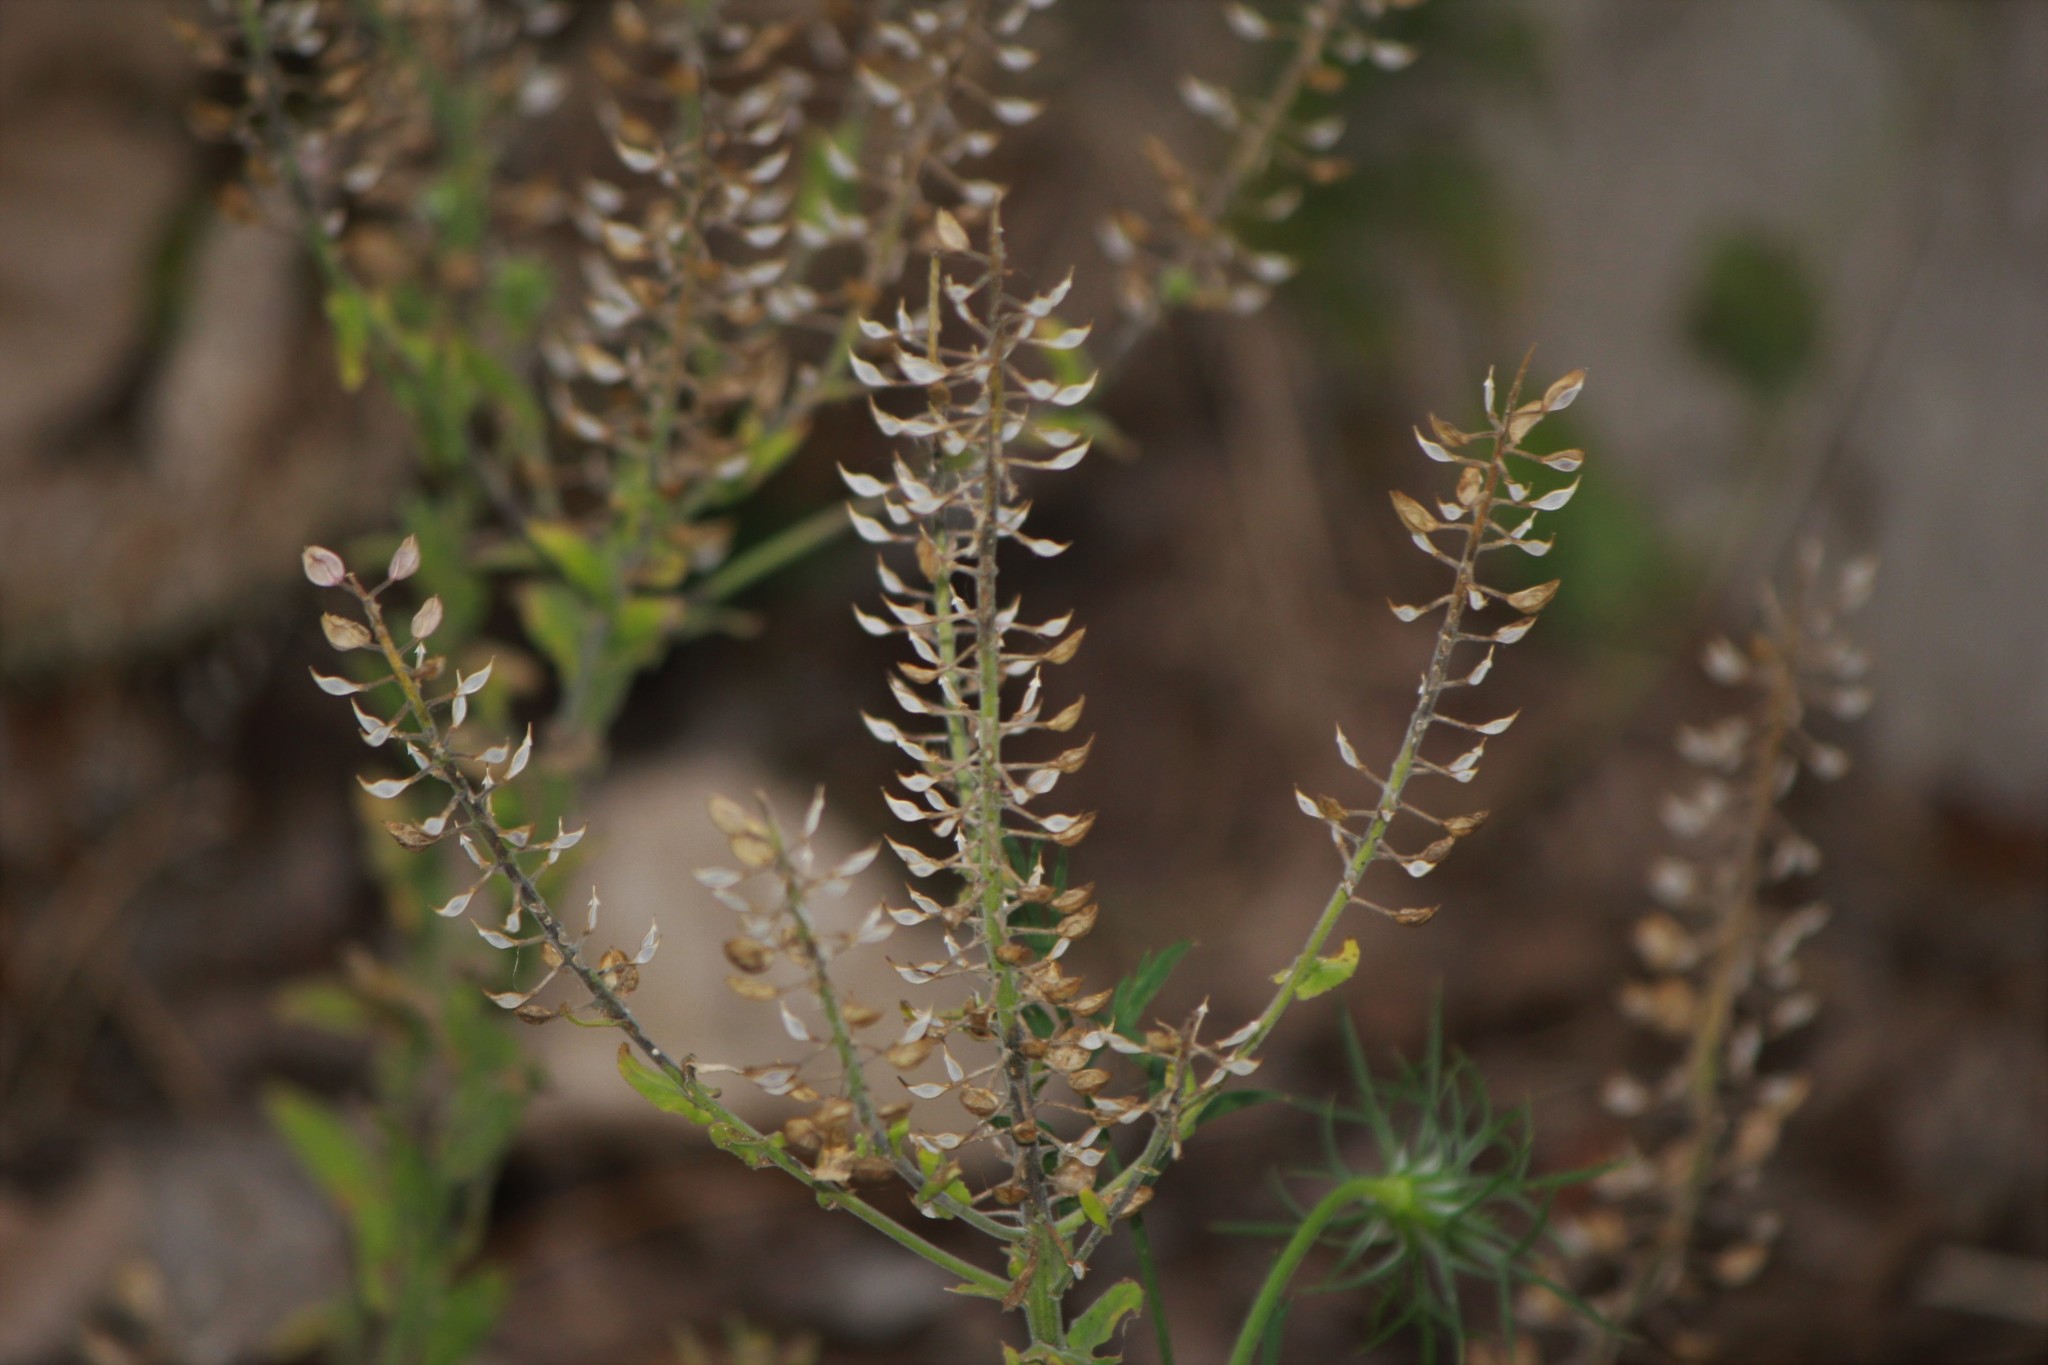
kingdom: Plantae
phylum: Tracheophyta
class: Magnoliopsida
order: Brassicales
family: Brassicaceae
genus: Lepidium
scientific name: Lepidium campestre
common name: Field pepperwort
